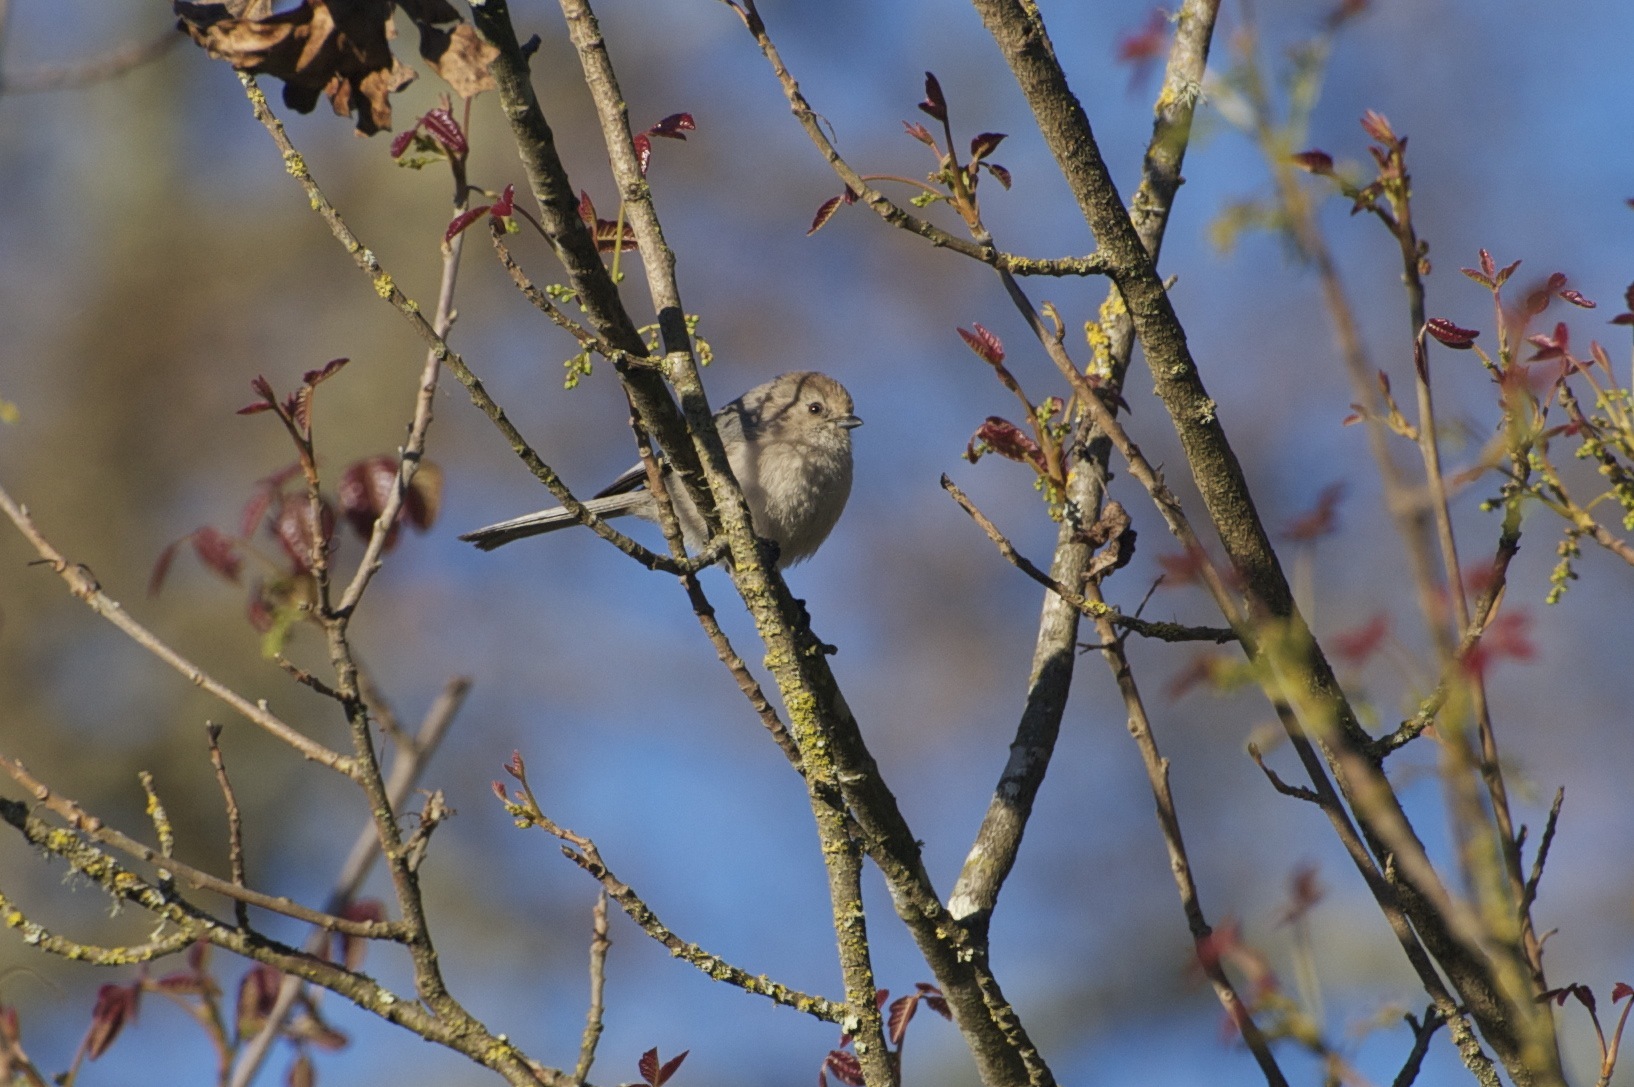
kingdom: Animalia
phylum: Chordata
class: Aves
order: Passeriformes
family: Aegithalidae
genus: Psaltriparus
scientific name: Psaltriparus minimus
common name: American bushtit
